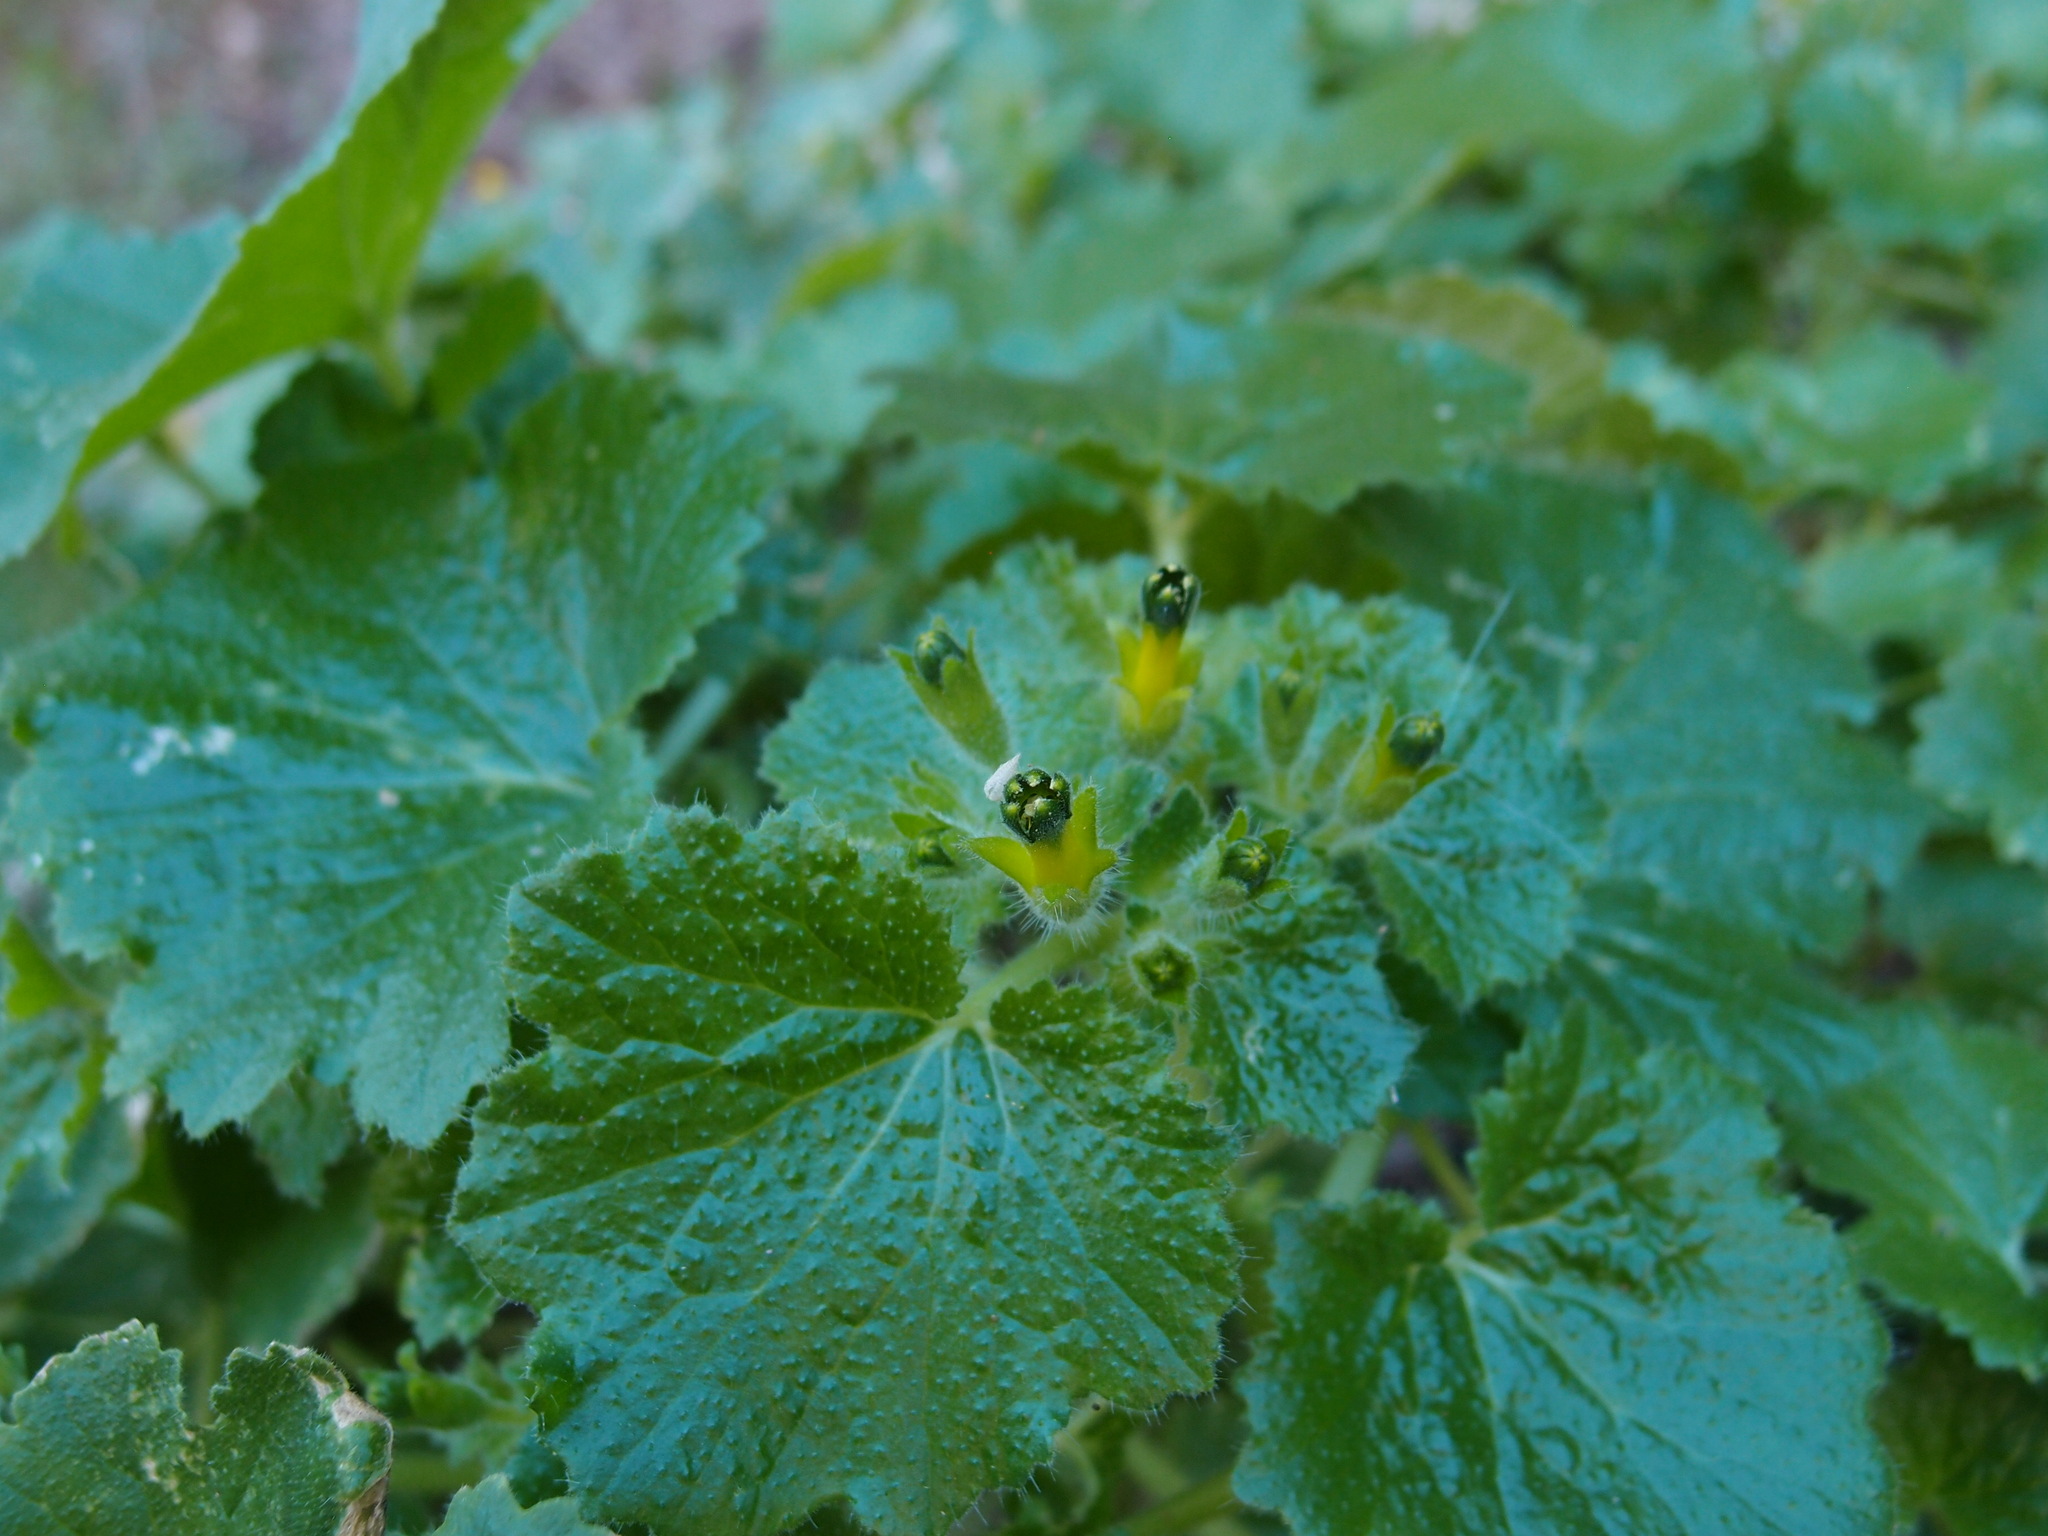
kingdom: Plantae
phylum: Tracheophyta
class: Magnoliopsida
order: Cornales
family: Loasaceae
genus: Eucnide
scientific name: Eucnide rupestris
